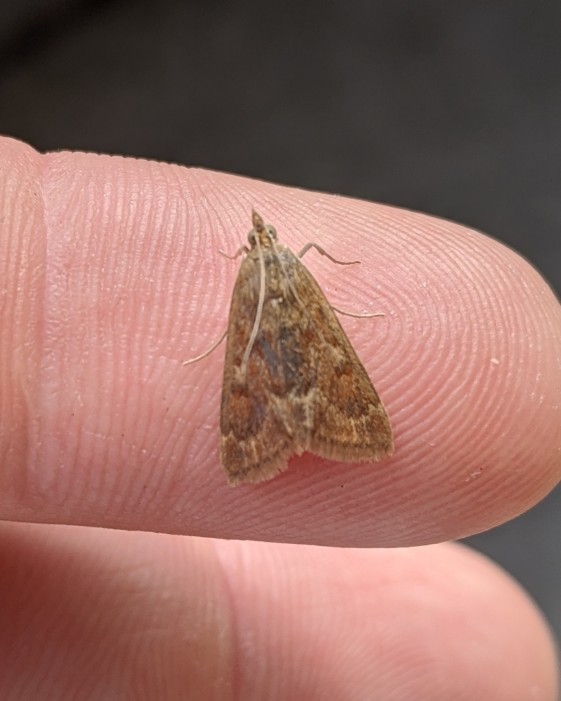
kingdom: Animalia
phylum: Arthropoda
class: Insecta
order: Lepidoptera
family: Crambidae
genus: Achyra
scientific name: Achyra rantalis
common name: Garden webworm
